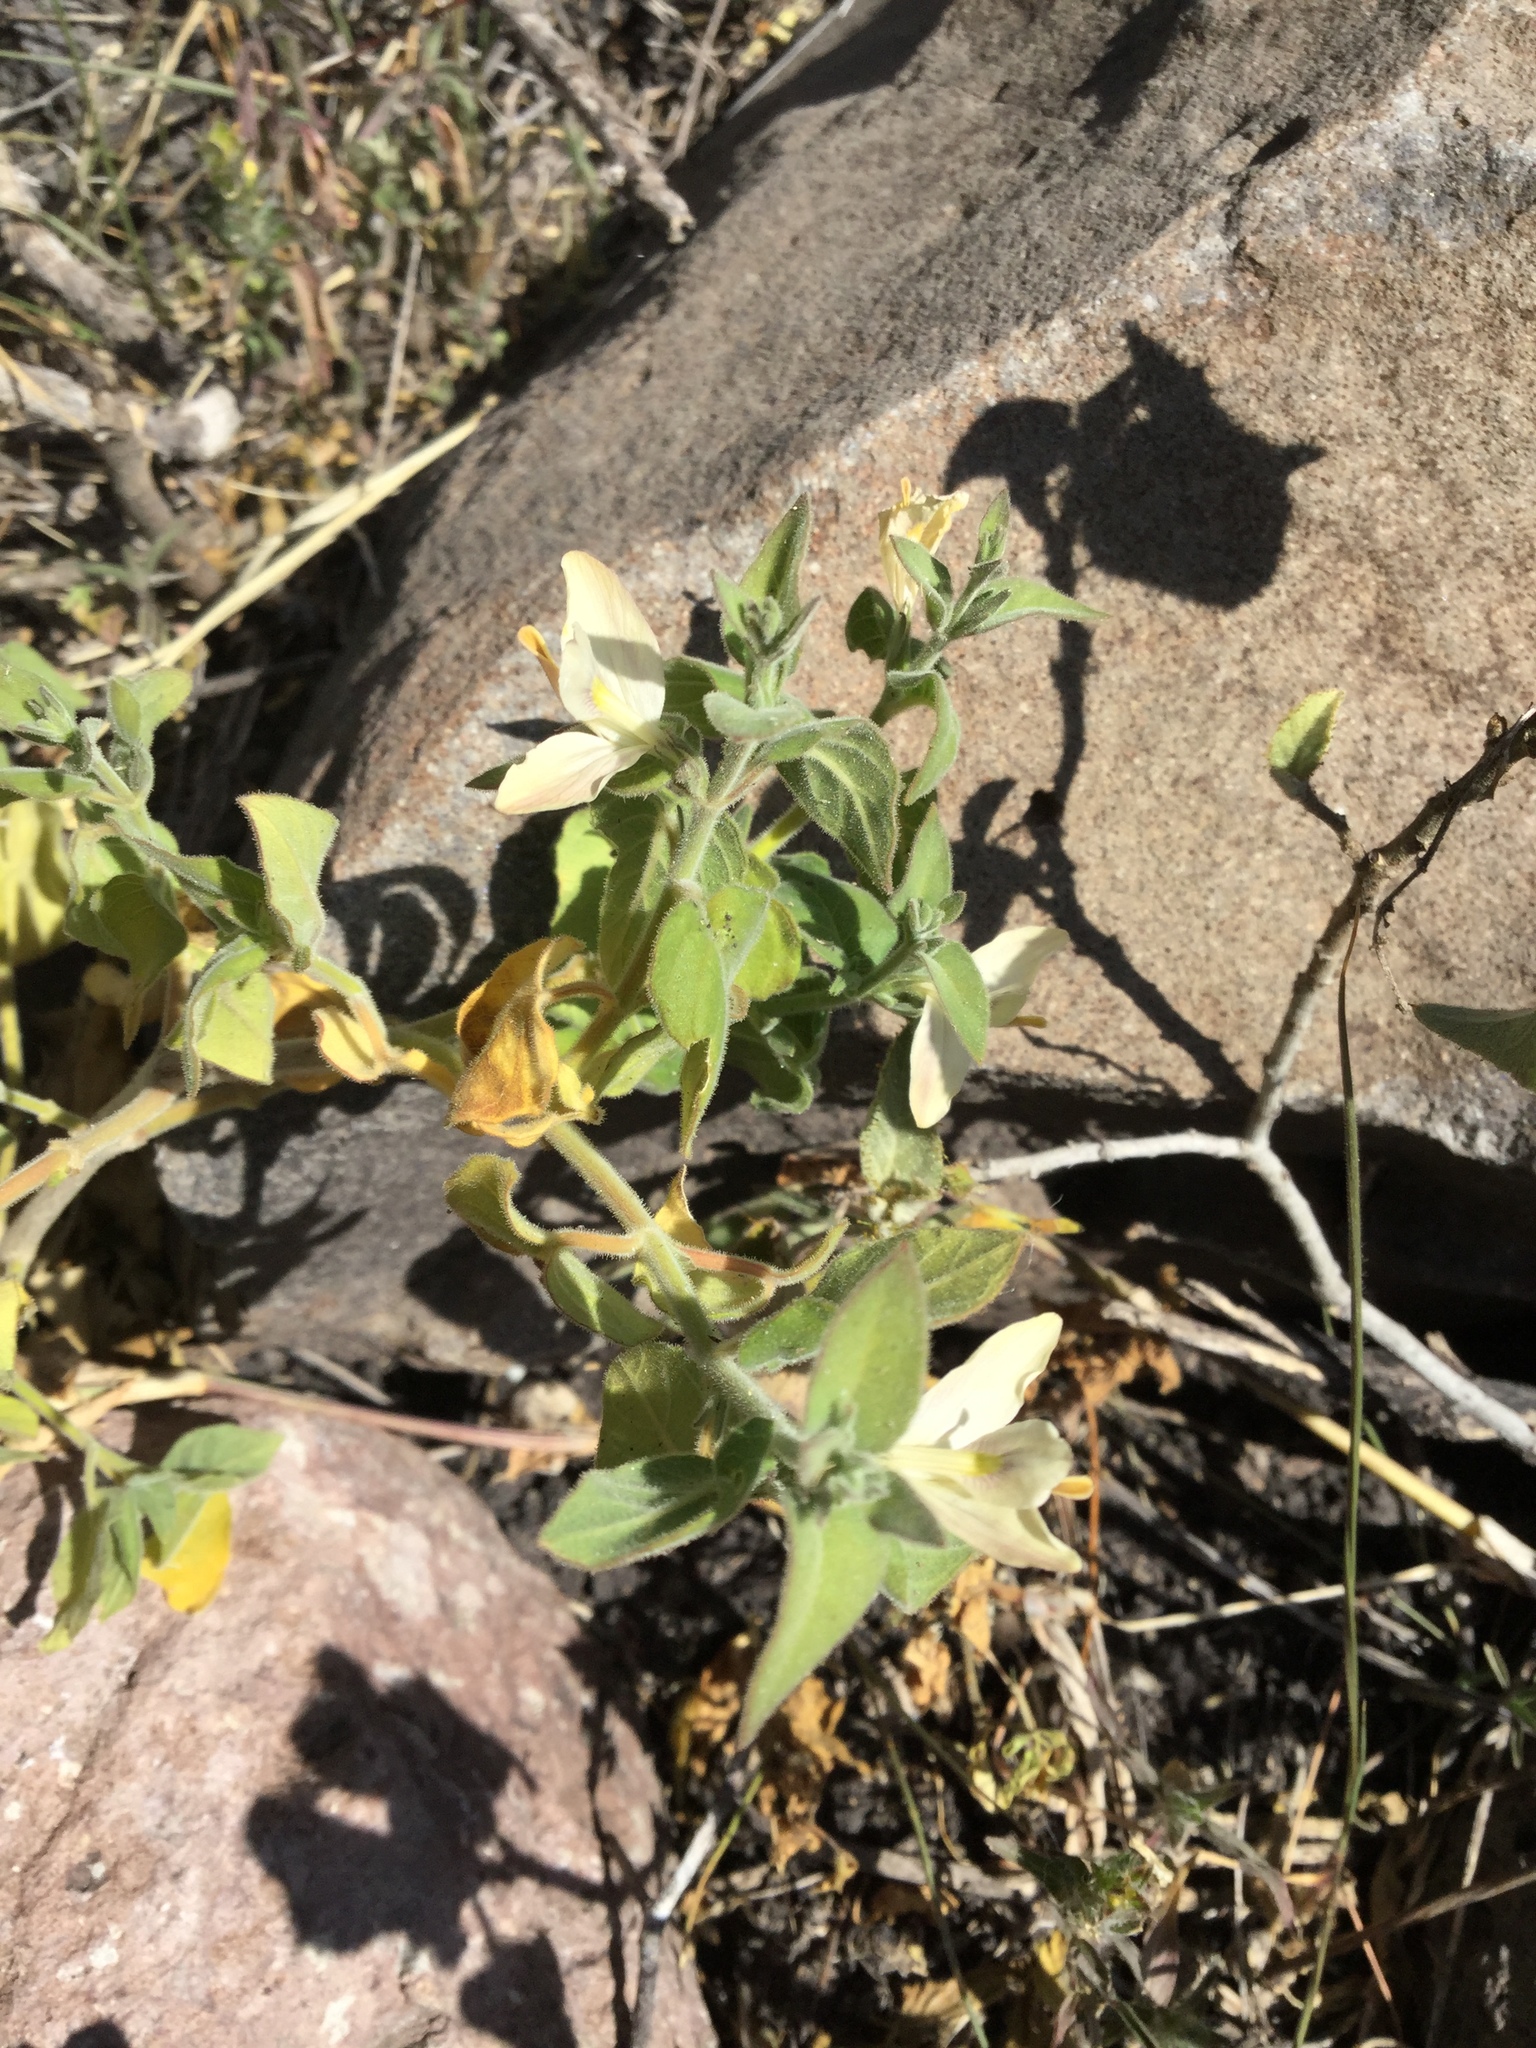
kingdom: Plantae
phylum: Tracheophyta
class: Magnoliopsida
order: Lamiales
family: Acanthaceae
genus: Carlowrightia
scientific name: Carlowrightia neesiana
